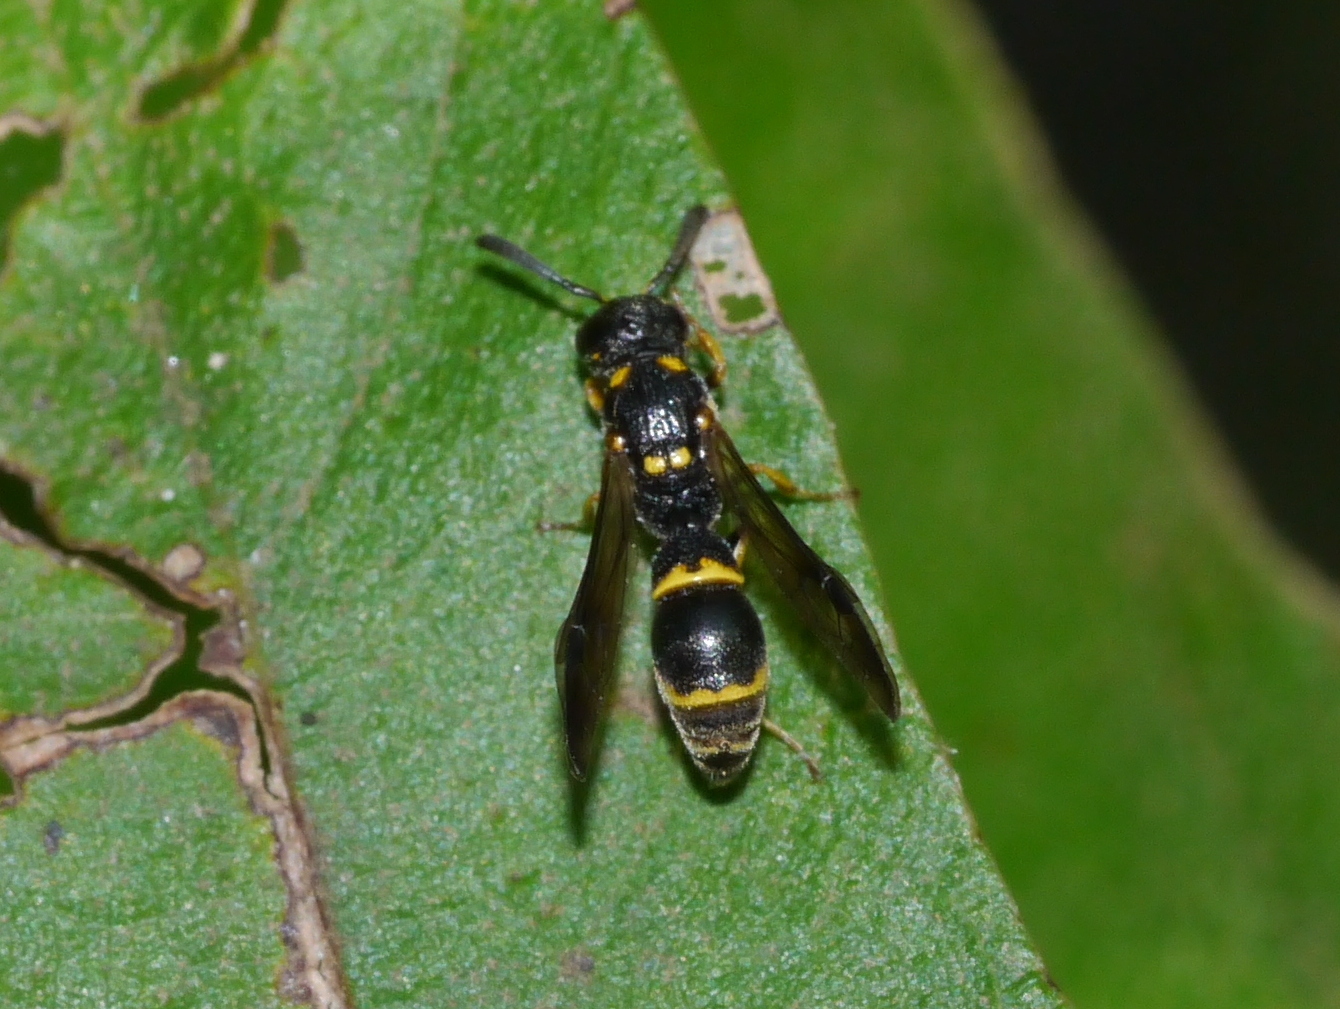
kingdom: Animalia
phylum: Arthropoda
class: Insecta
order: Hymenoptera
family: Eumenidae
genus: Symmorphus
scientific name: Symmorphus
